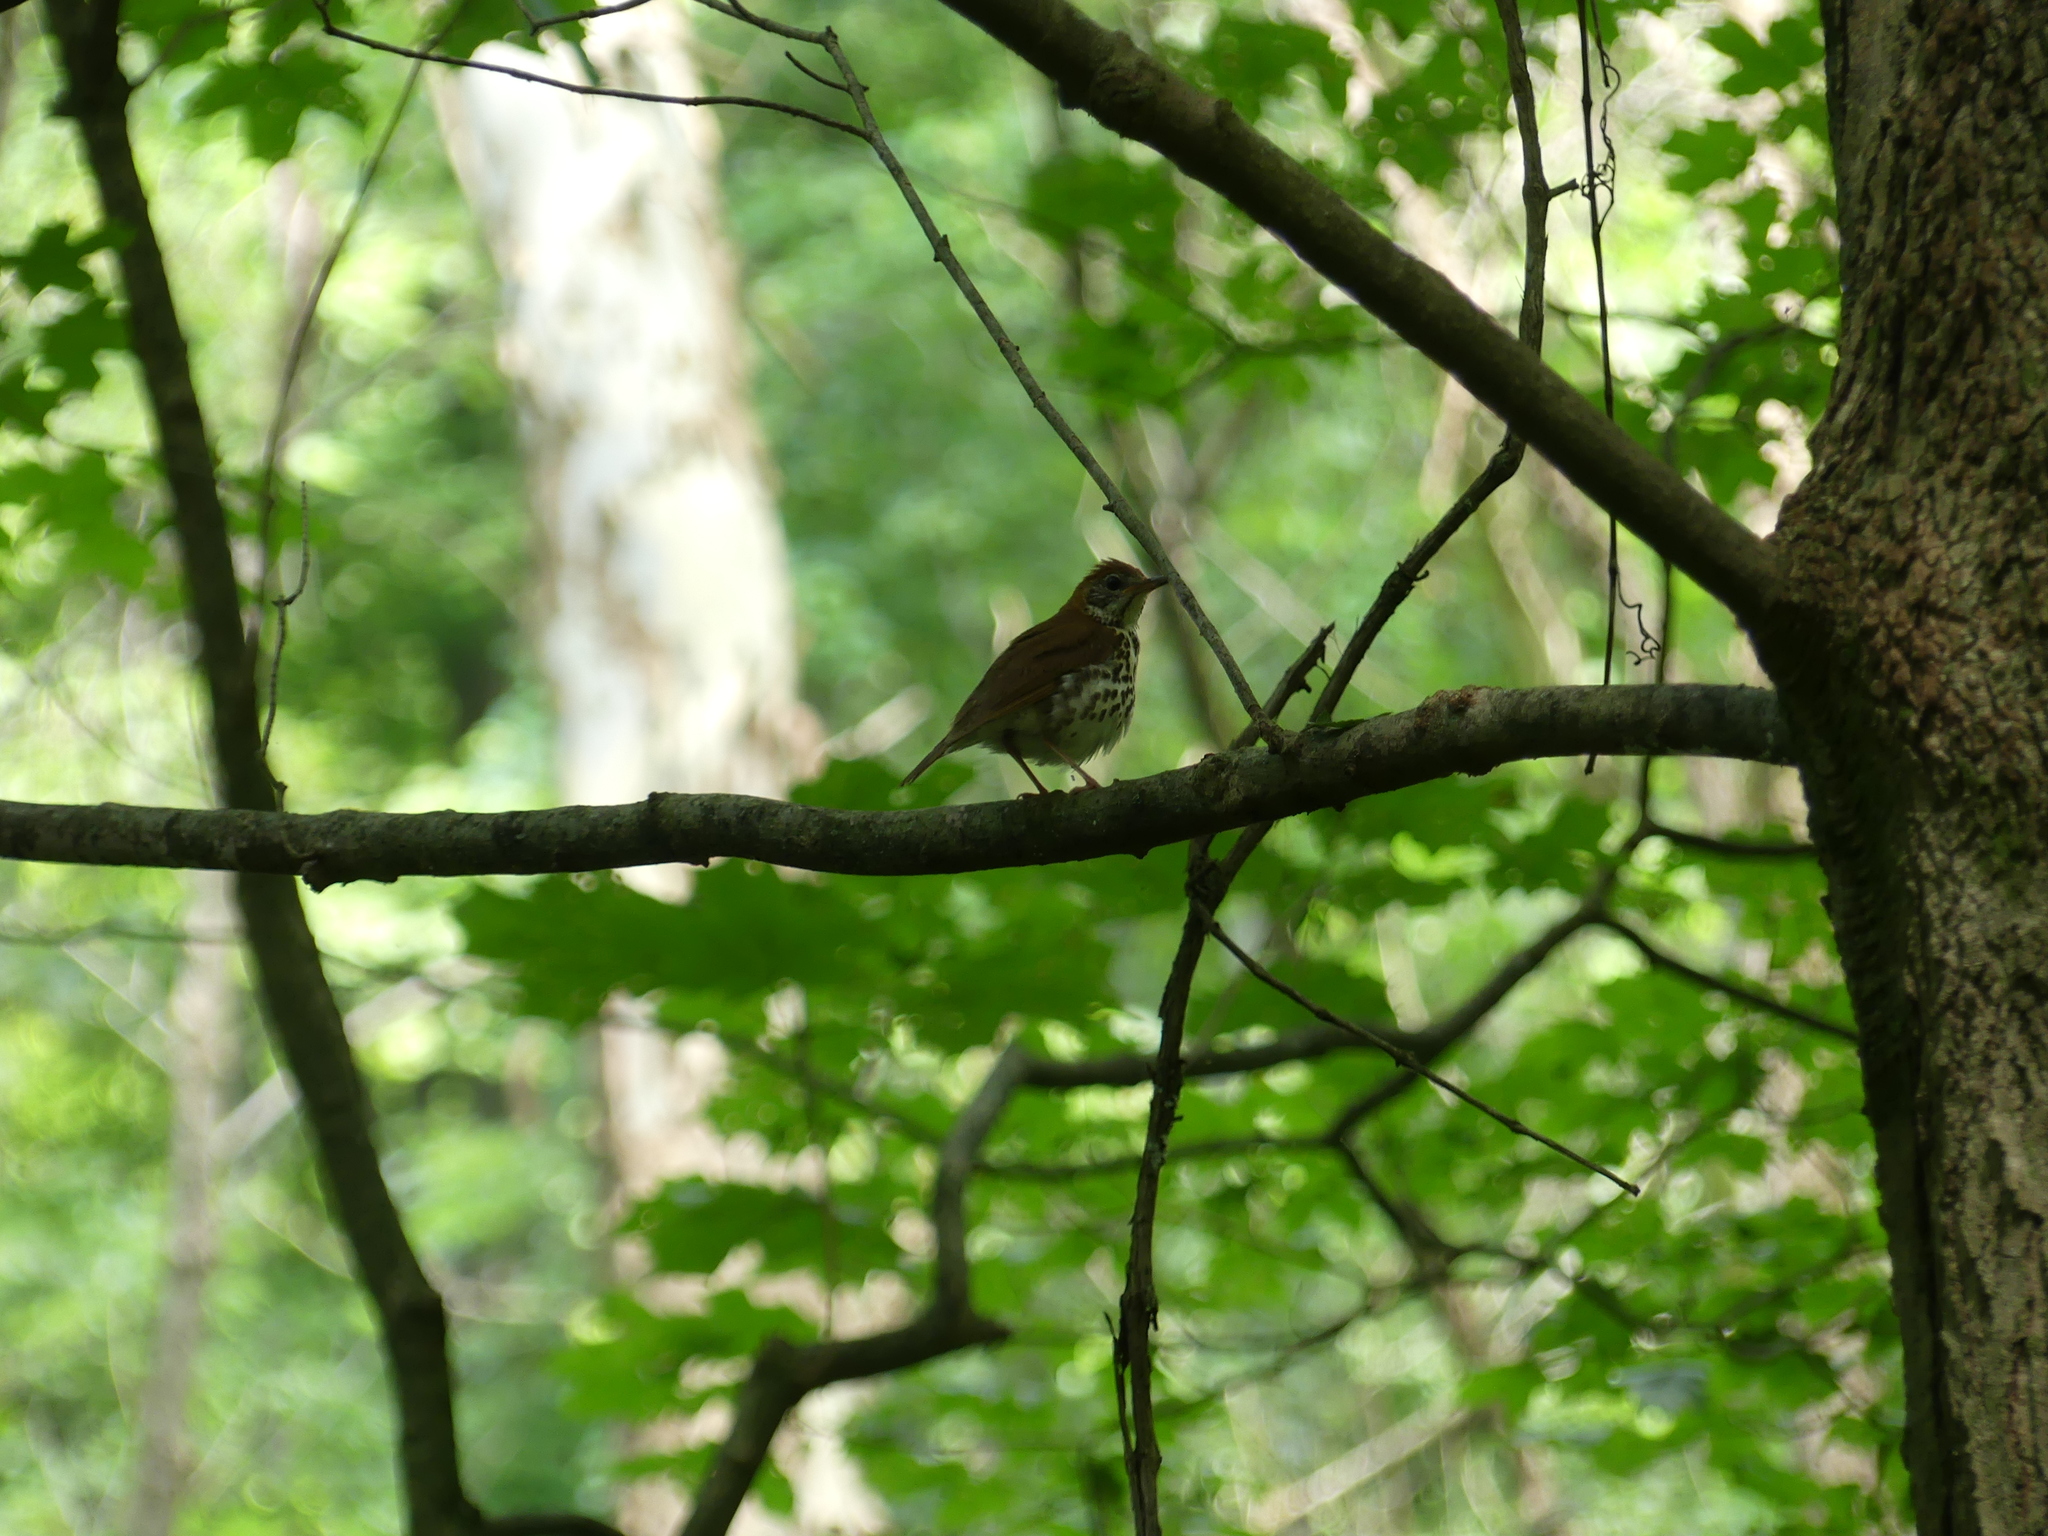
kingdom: Animalia
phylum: Chordata
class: Aves
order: Passeriformes
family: Turdidae
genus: Hylocichla
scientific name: Hylocichla mustelina
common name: Wood thrush
